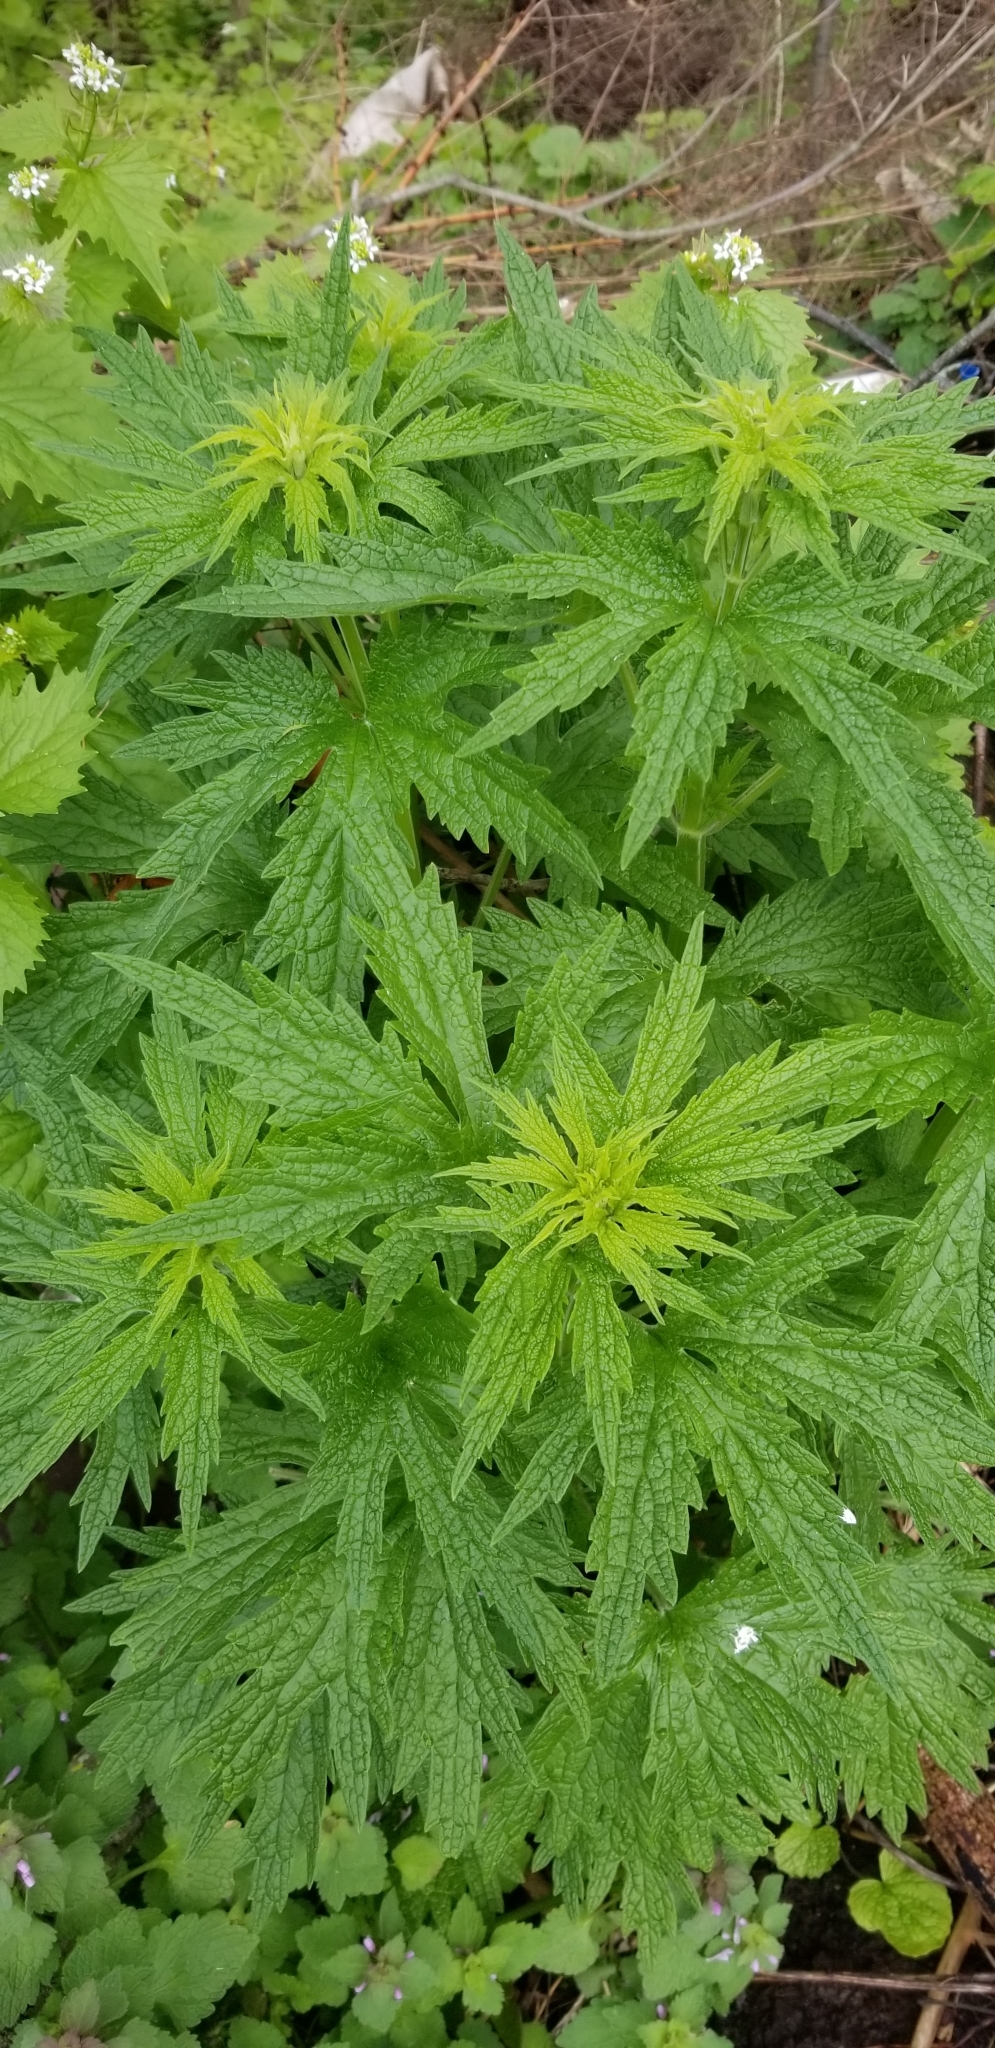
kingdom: Plantae
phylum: Tracheophyta
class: Magnoliopsida
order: Lamiales
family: Lamiaceae
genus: Leonurus
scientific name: Leonurus cardiaca
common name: Motherwort
